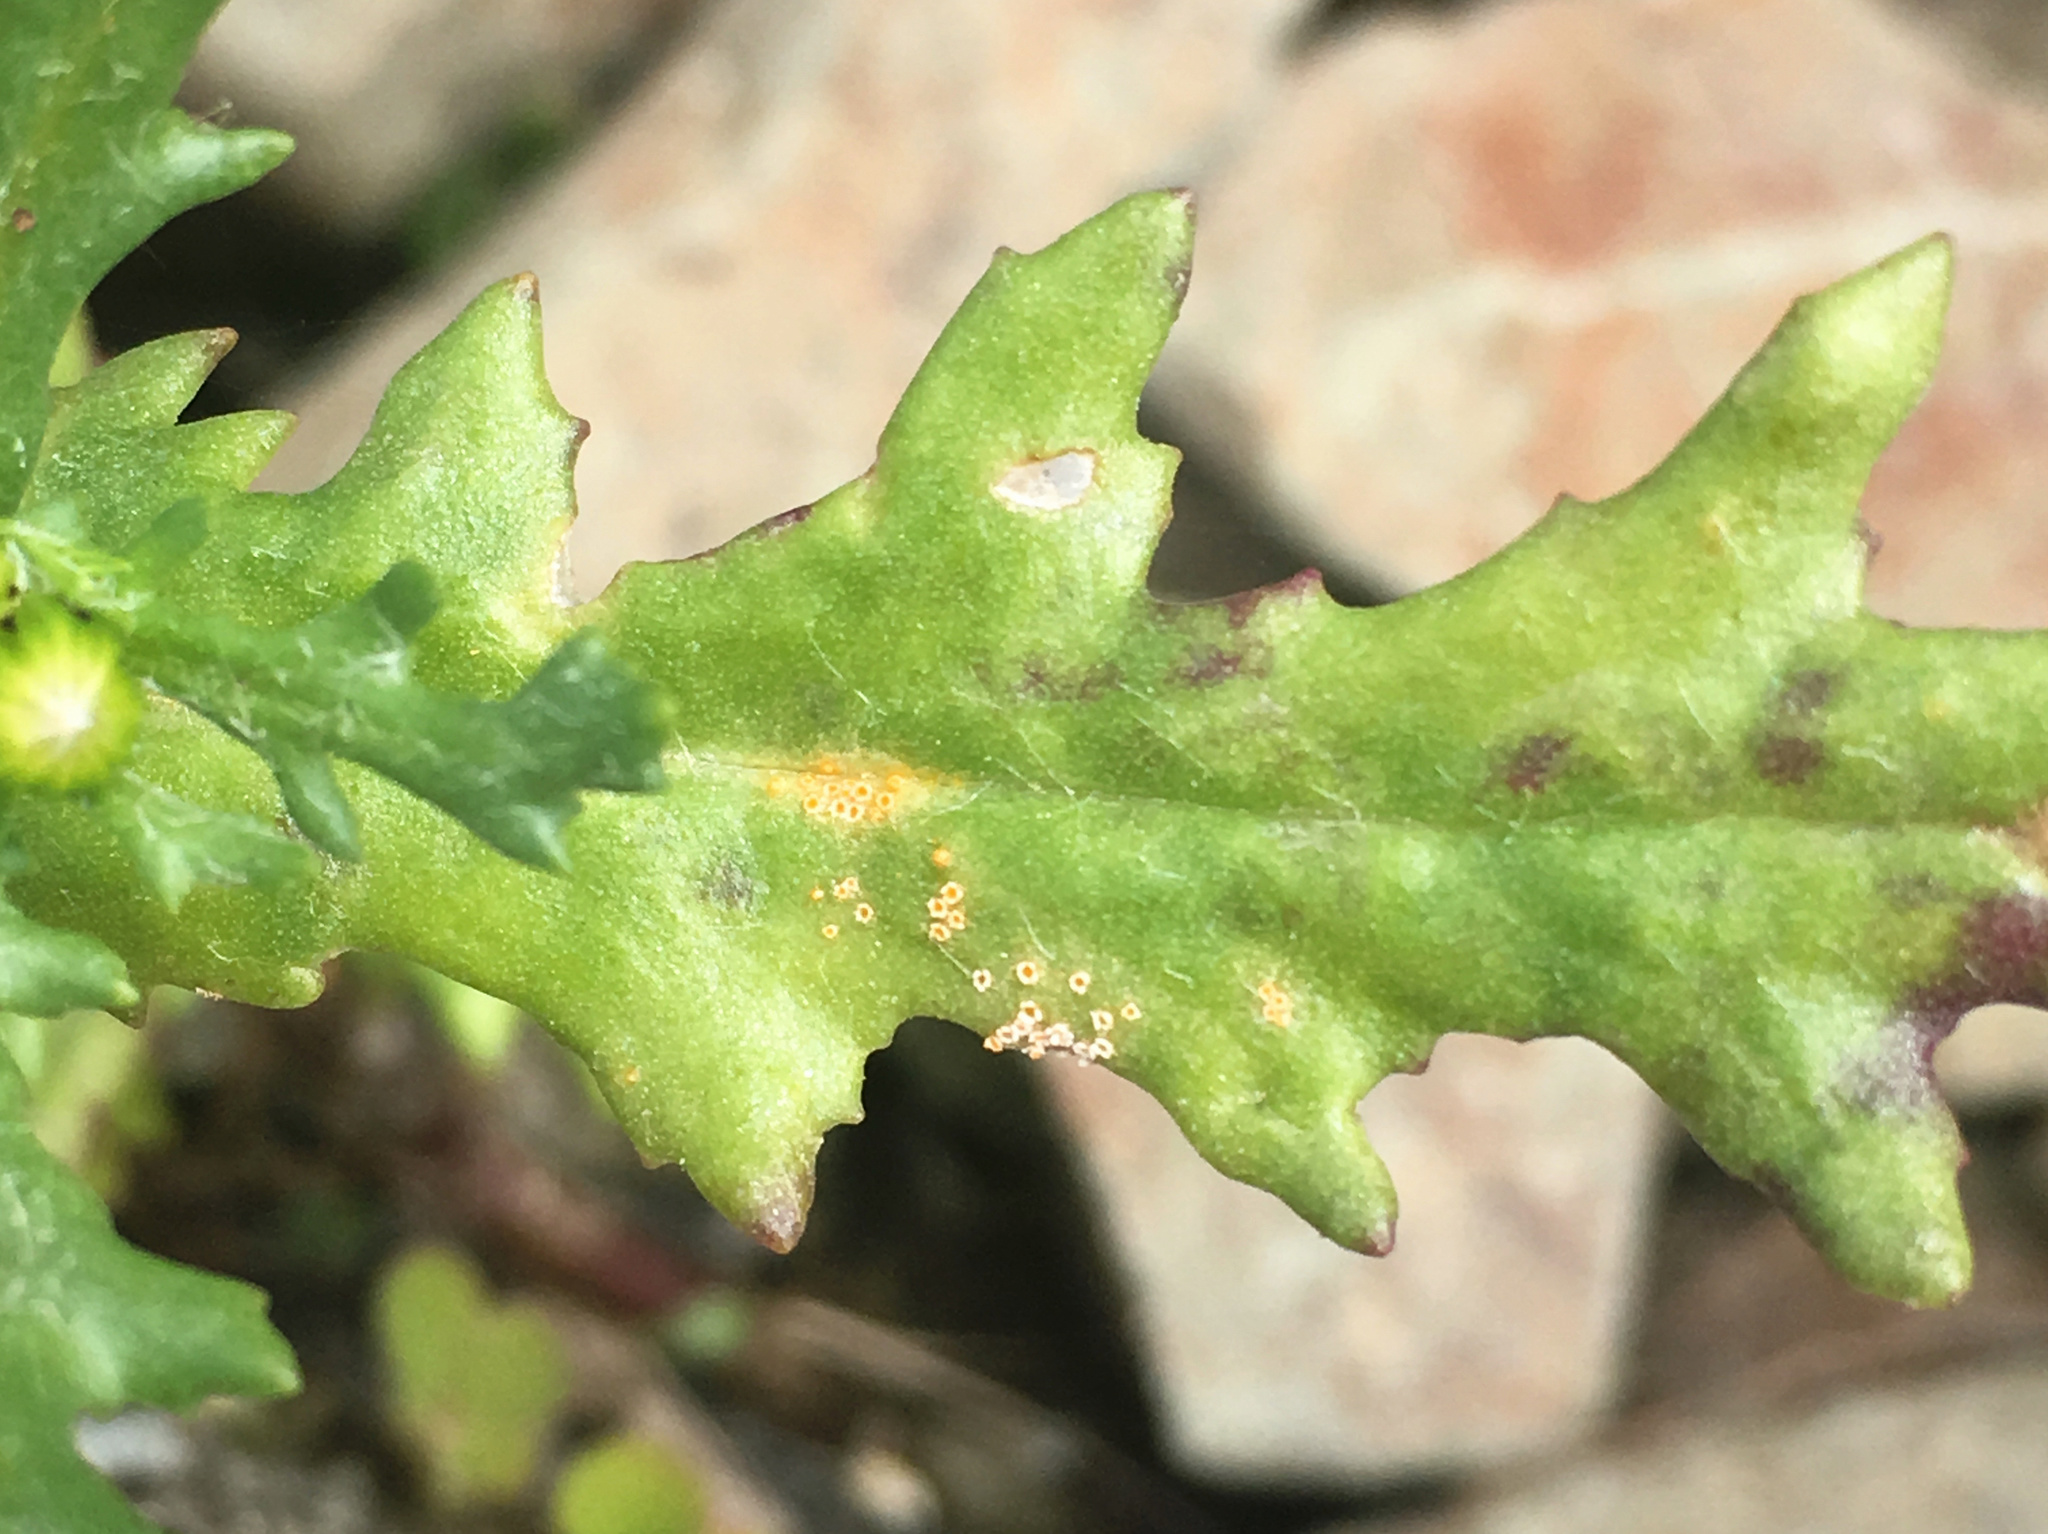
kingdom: Fungi
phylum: Basidiomycota
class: Pucciniomycetes
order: Pucciniales
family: Pucciniaceae
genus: Puccinia
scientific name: Puccinia lagenophorae
